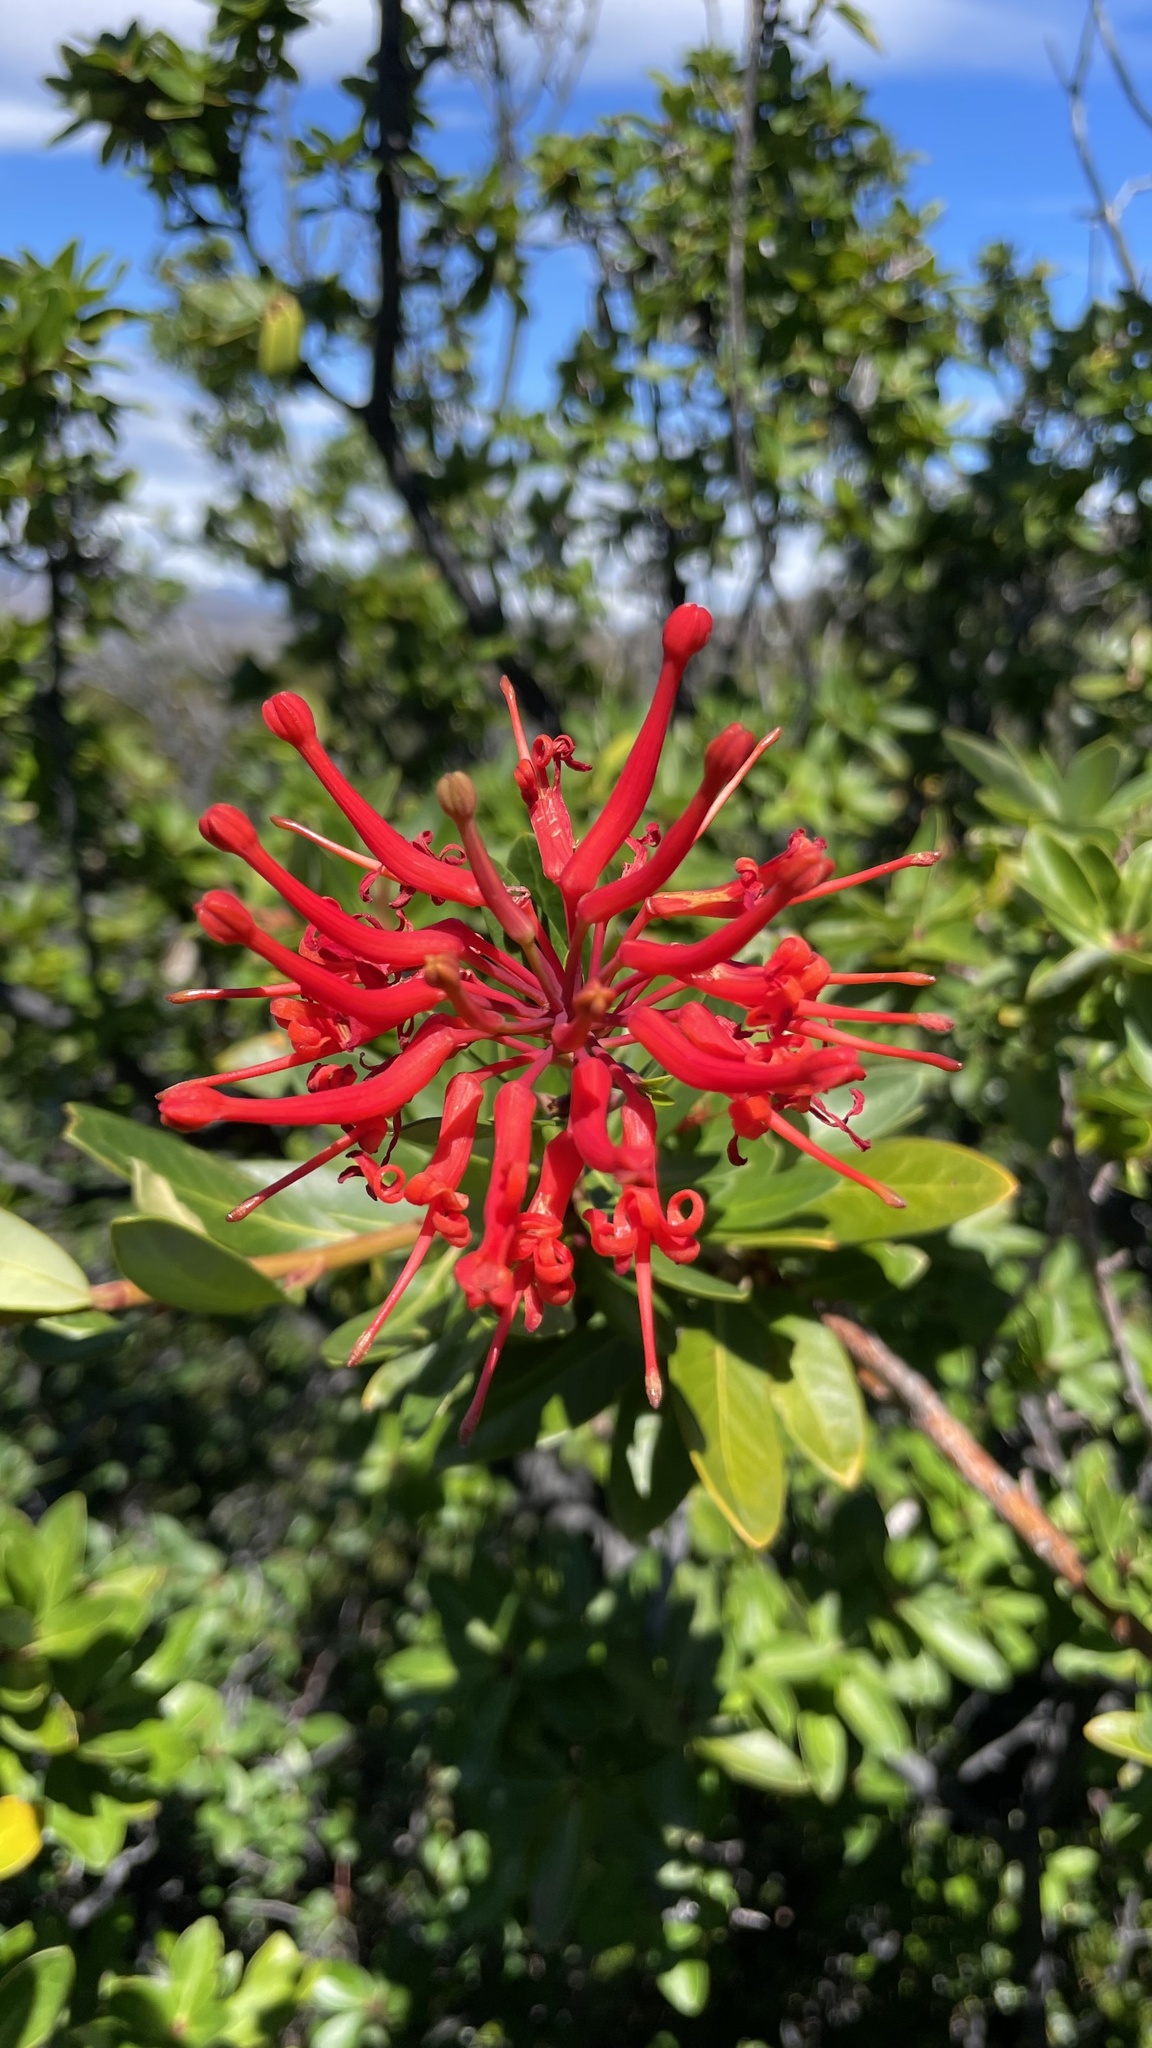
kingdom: Plantae
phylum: Tracheophyta
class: Magnoliopsida
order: Proteales
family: Proteaceae
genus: Embothrium
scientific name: Embothrium coccineum
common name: Chilean firebush
